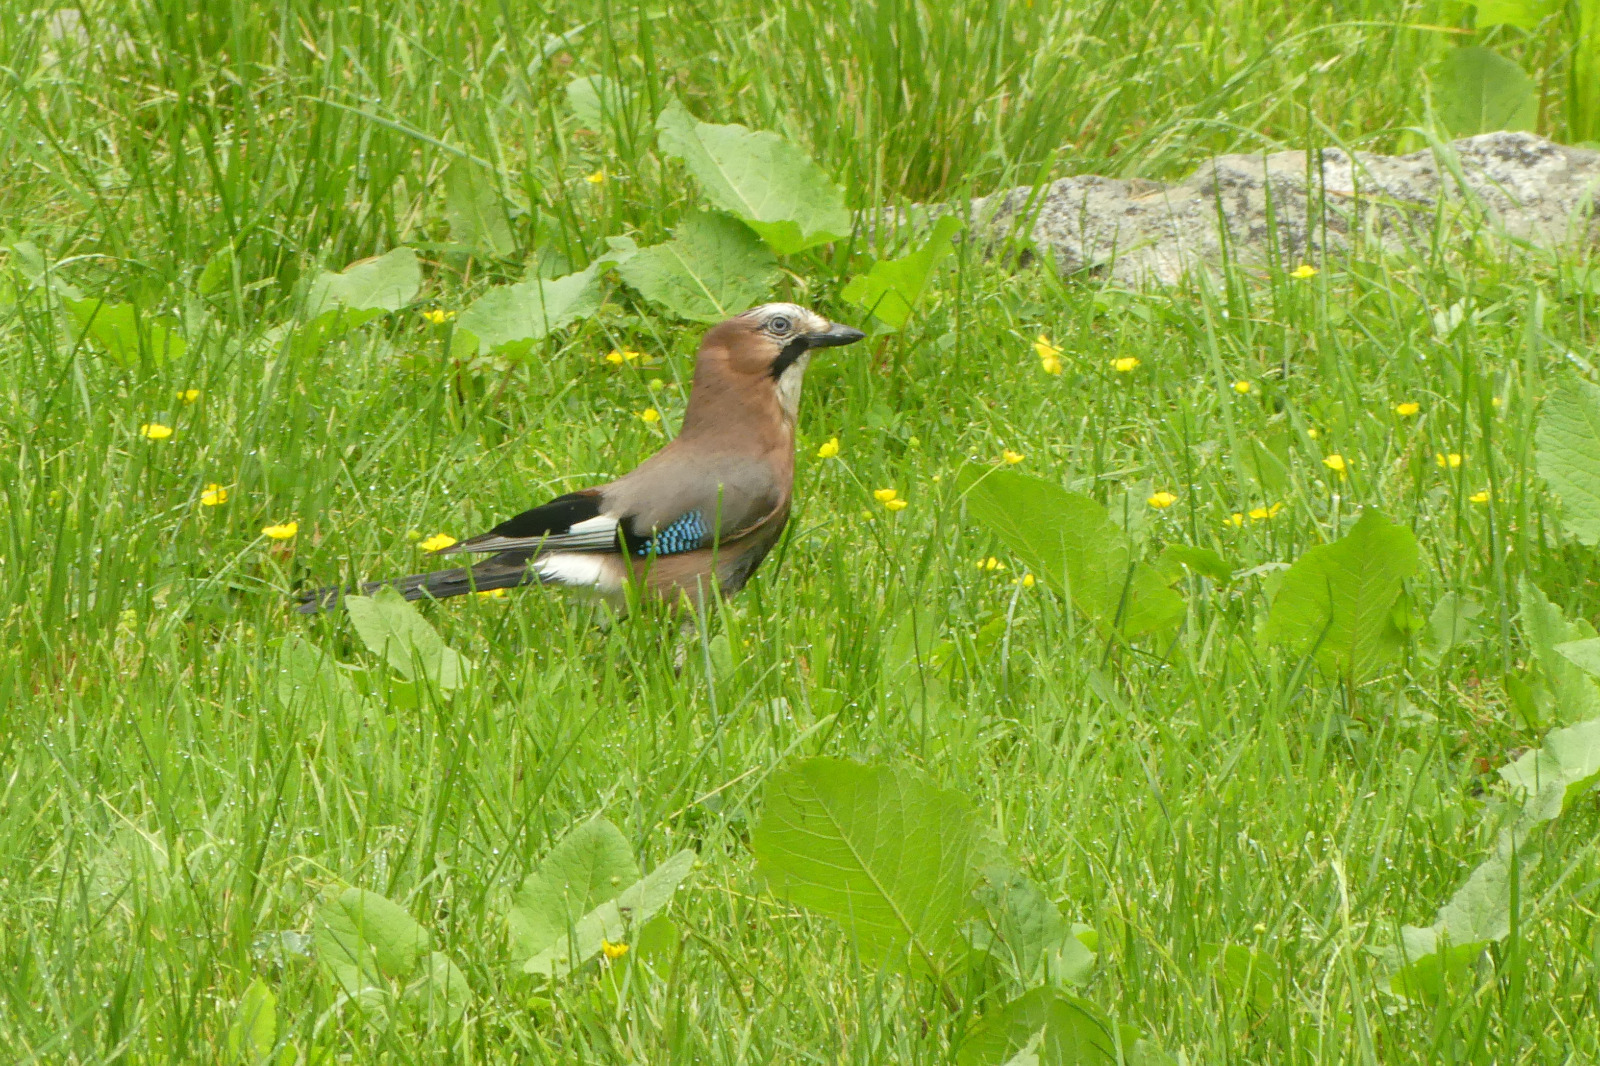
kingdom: Animalia
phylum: Chordata
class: Aves
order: Passeriformes
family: Corvidae
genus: Garrulus
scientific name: Garrulus glandarius
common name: Eurasian jay
